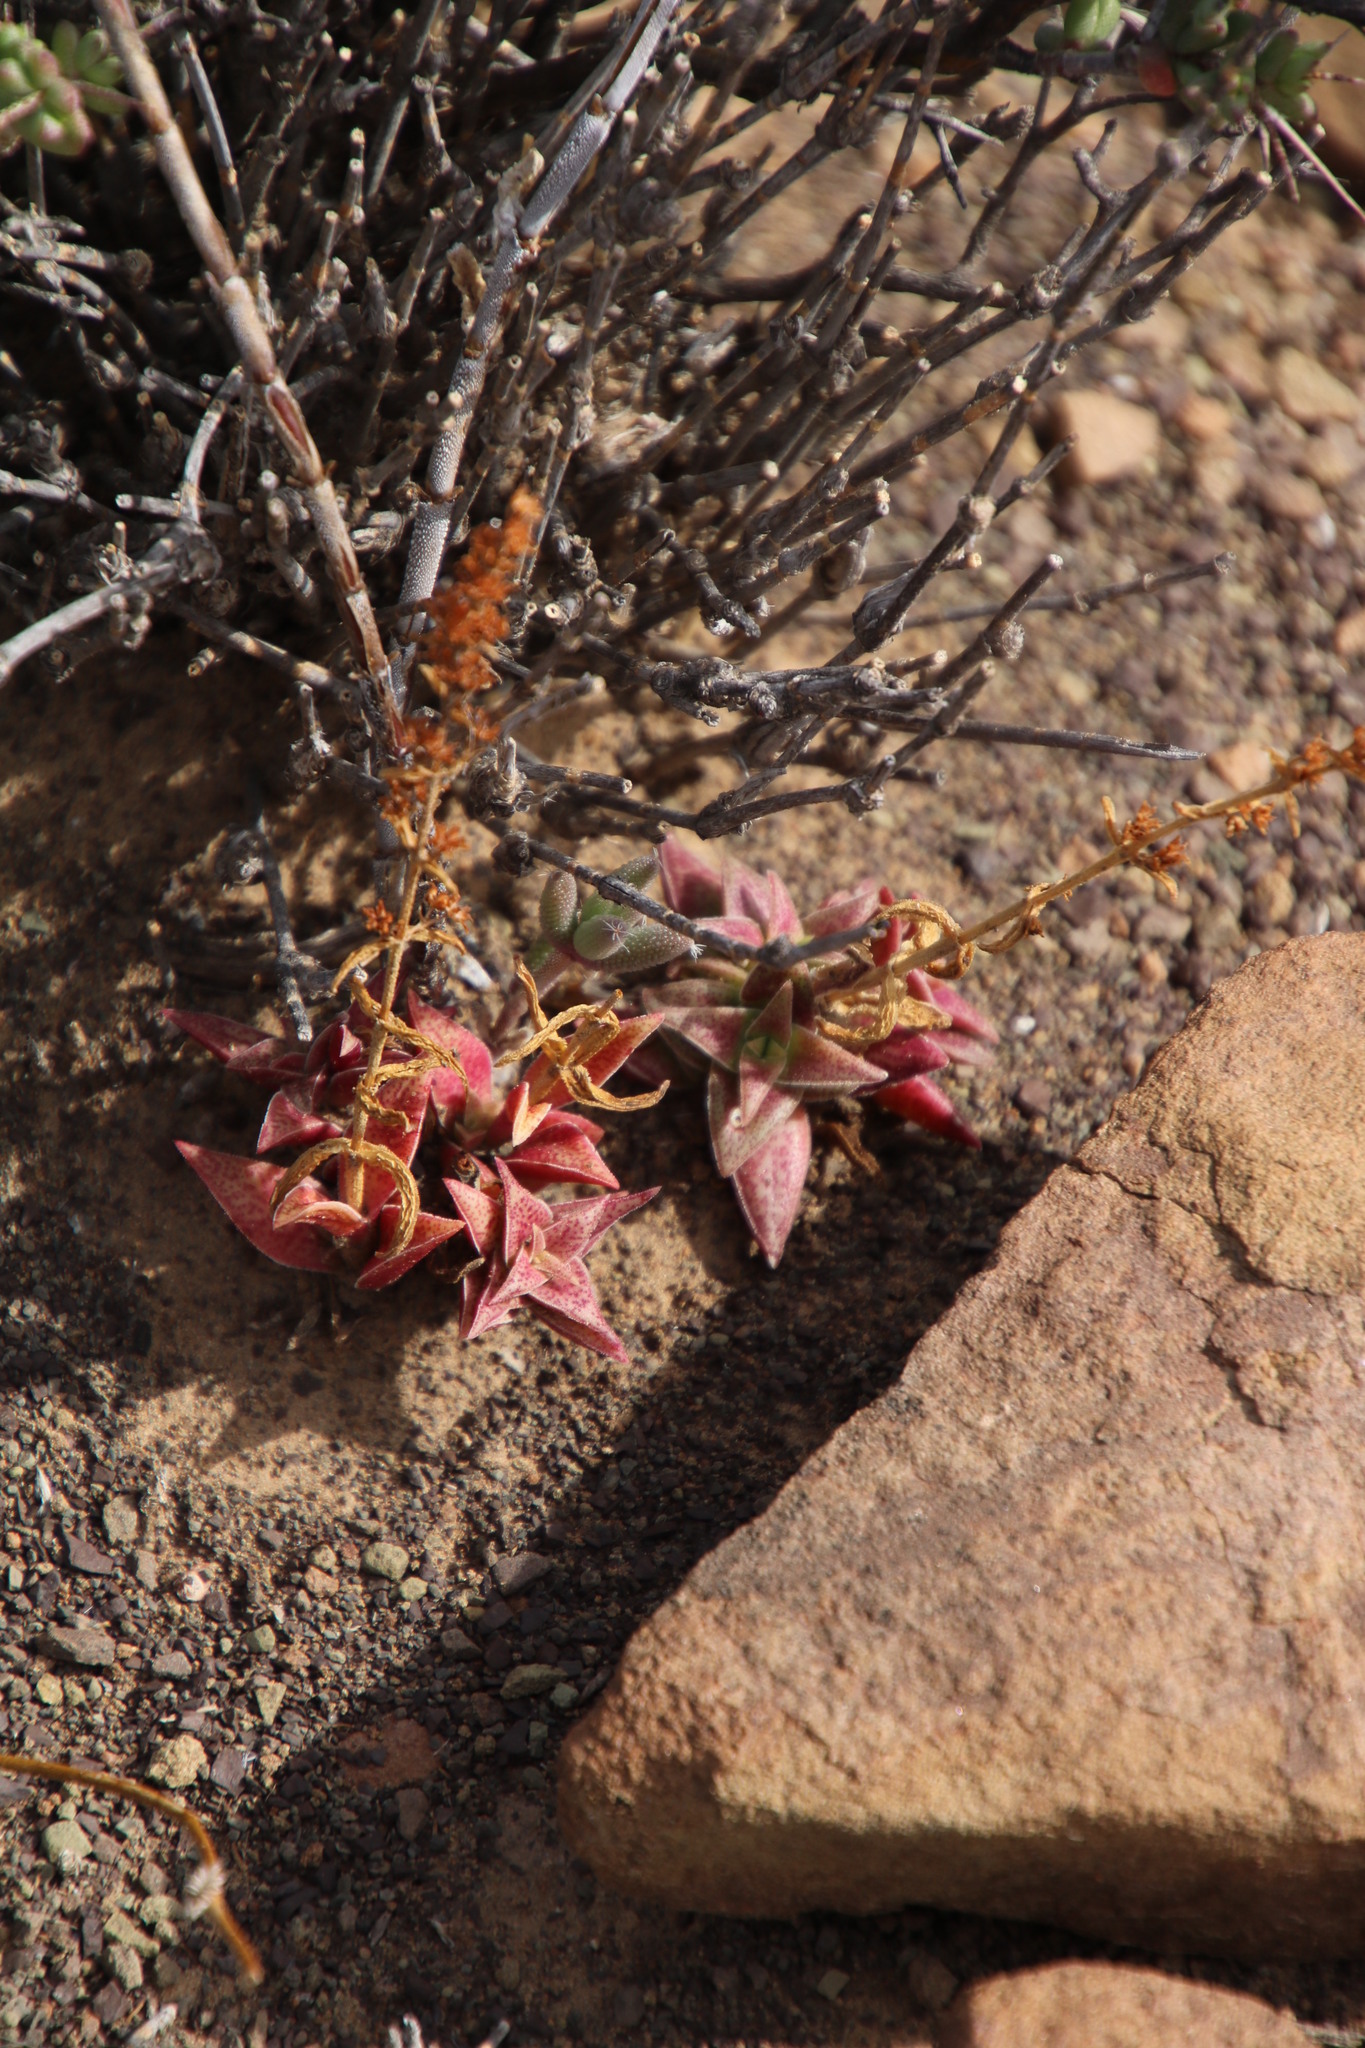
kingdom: Plantae
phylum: Tracheophyta
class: Magnoliopsida
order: Saxifragales
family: Crassulaceae
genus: Crassula
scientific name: Crassula capitella
